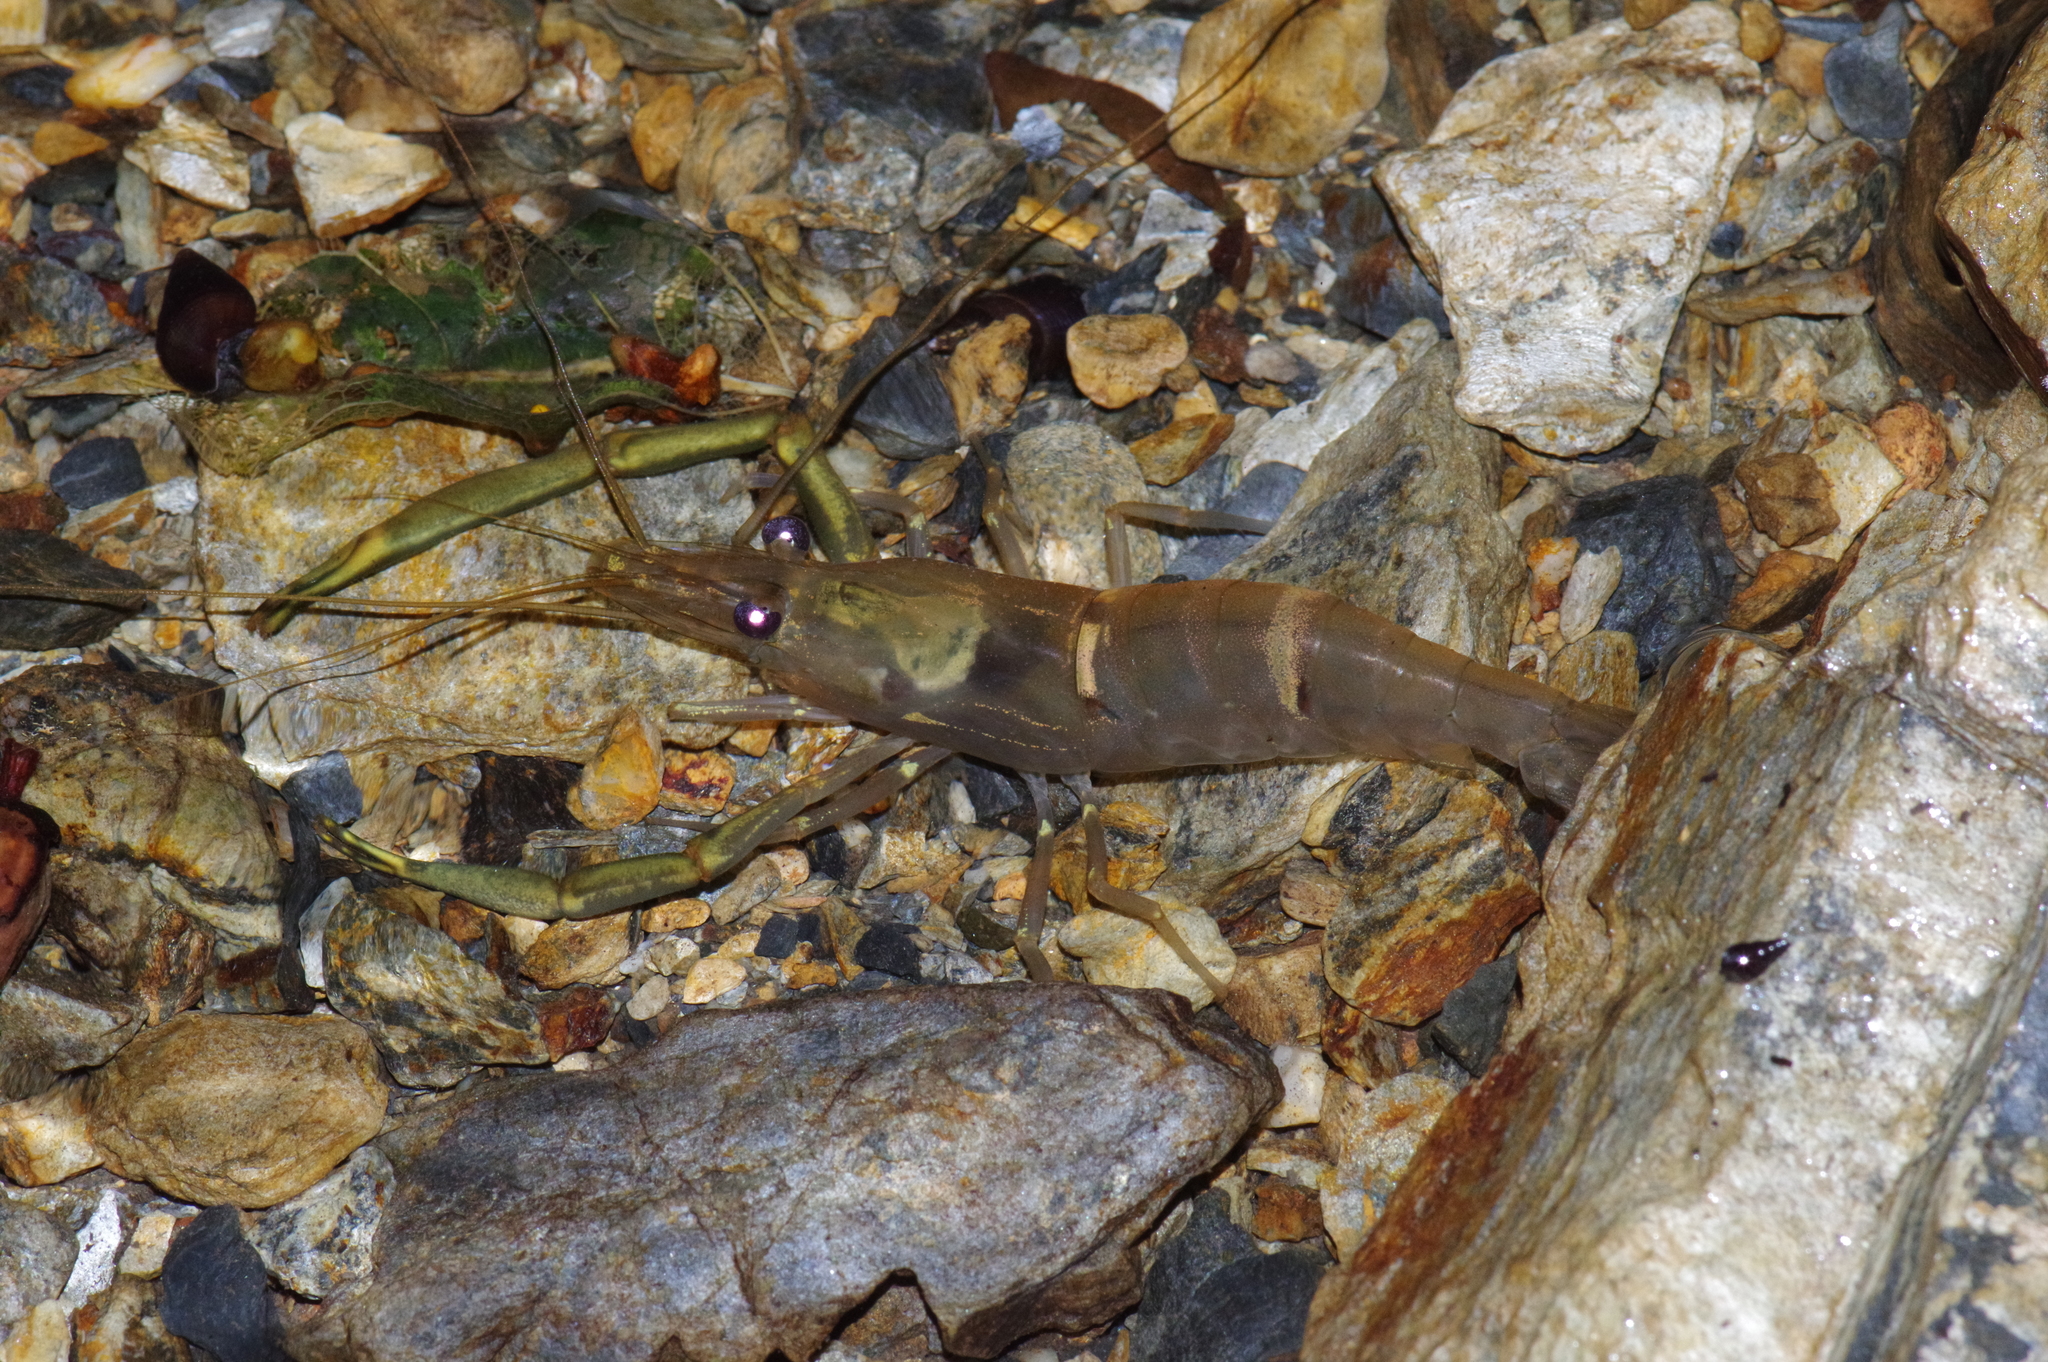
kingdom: Animalia
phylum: Arthropoda
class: Malacostraca
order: Decapoda
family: Palaemonidae
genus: Macrobrachium
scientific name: Macrobrachium japonicum
